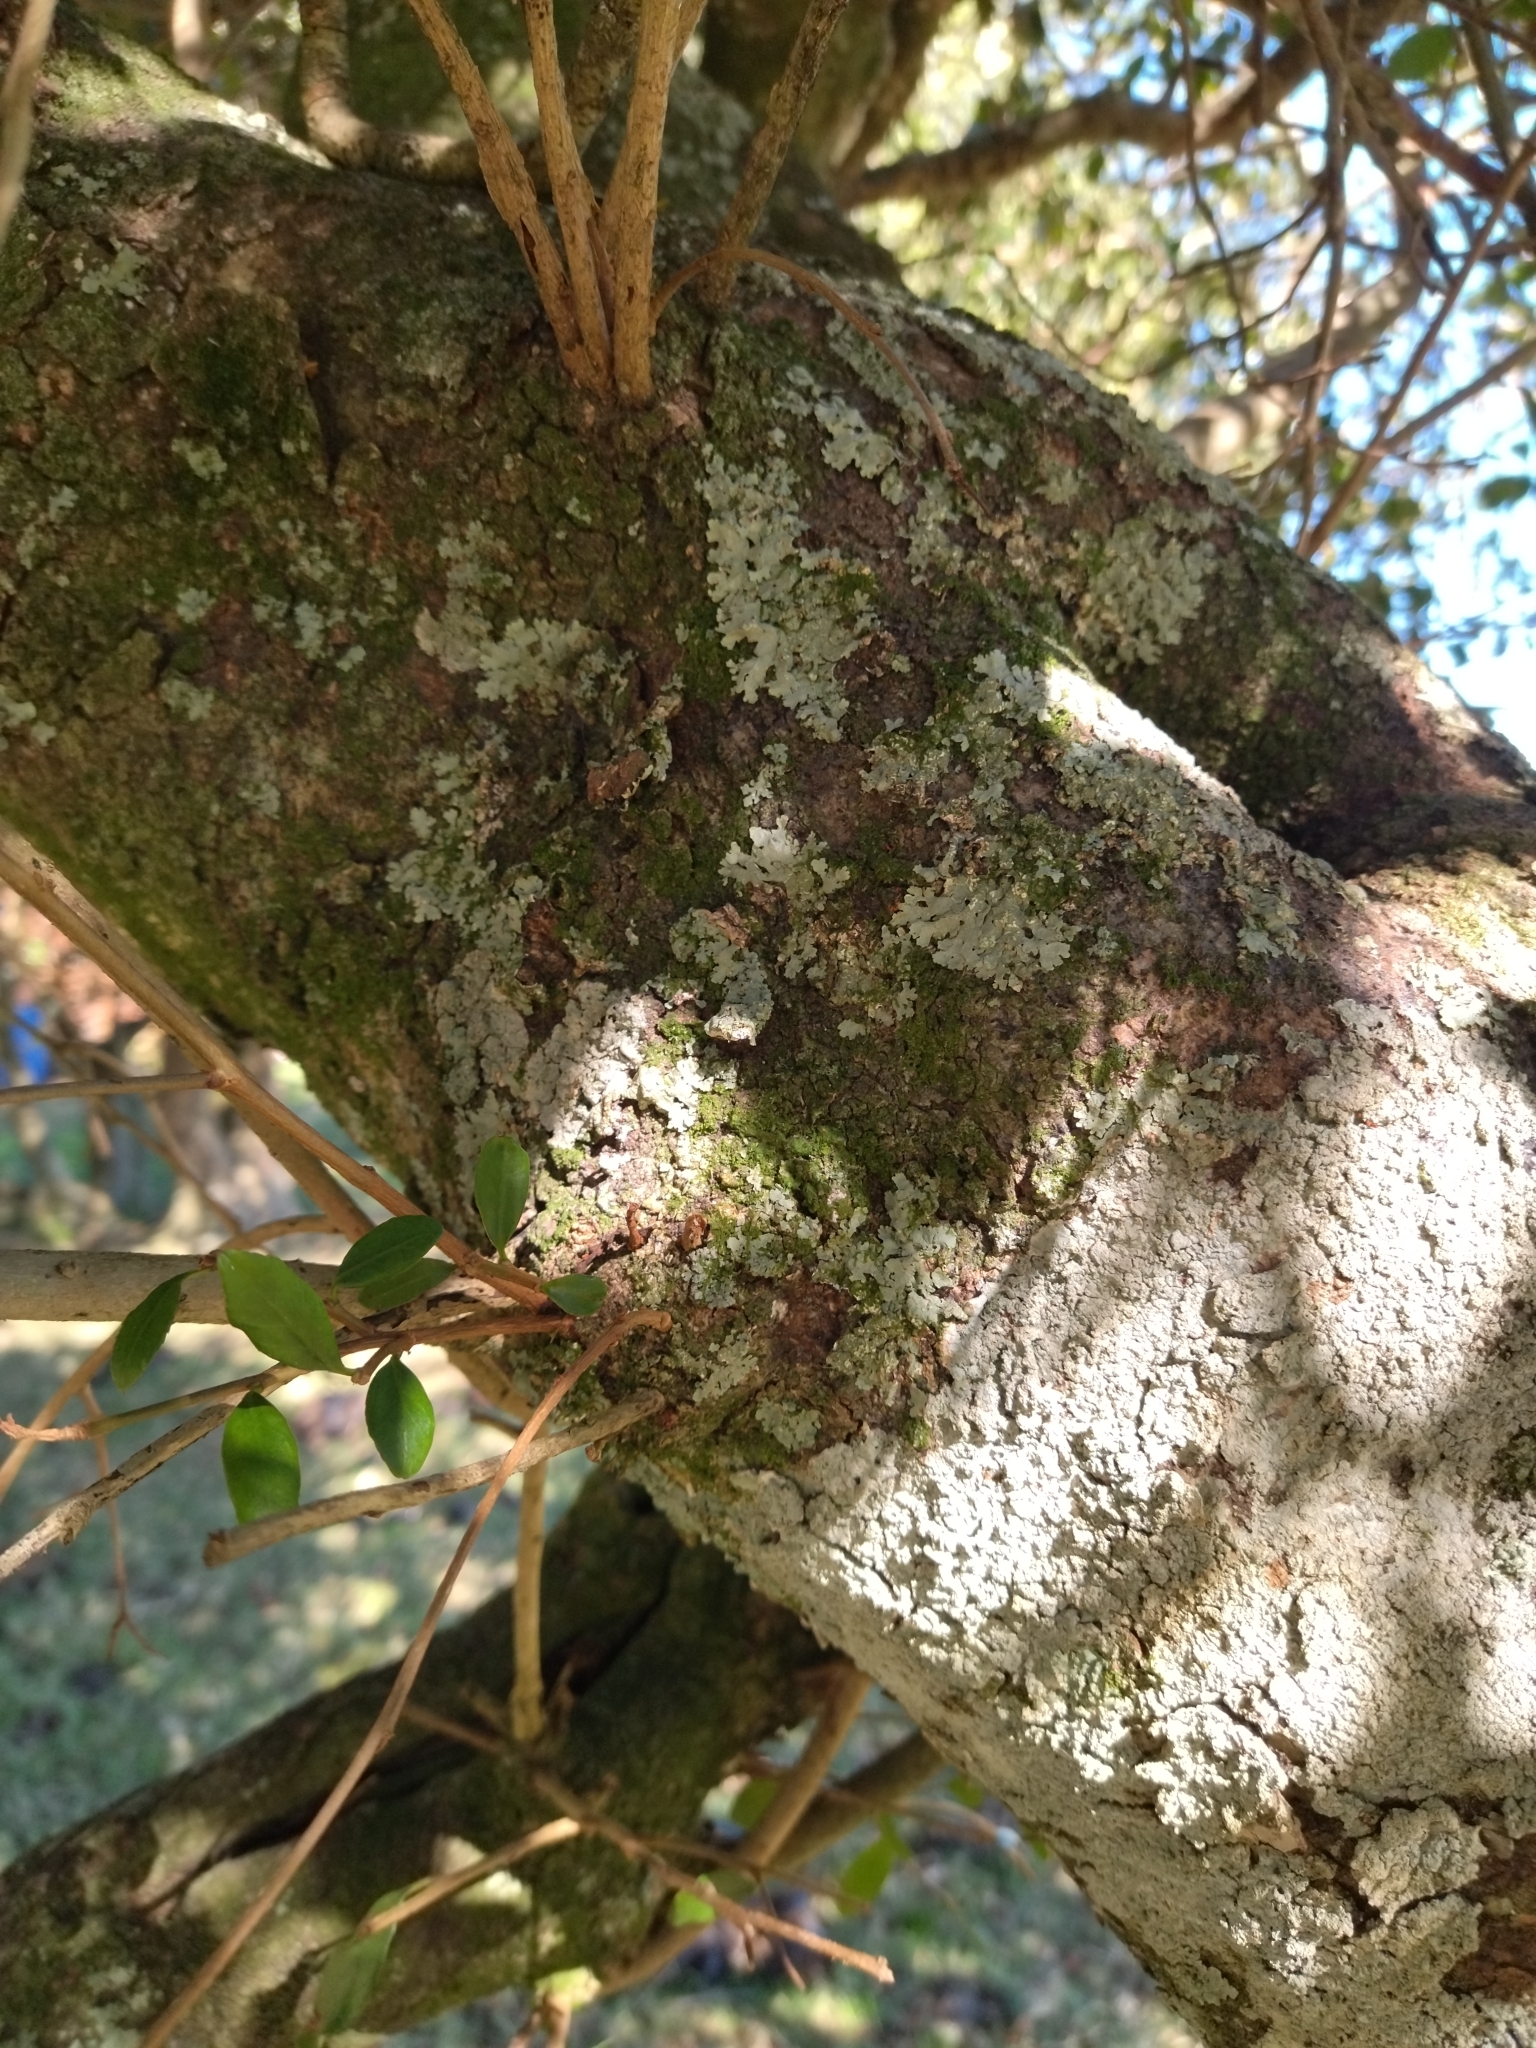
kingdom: Plantae
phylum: Tracheophyta
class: Magnoliopsida
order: Malpighiales
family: Euphorbiaceae
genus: Sebastiania
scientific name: Sebastiania brasiliensis
